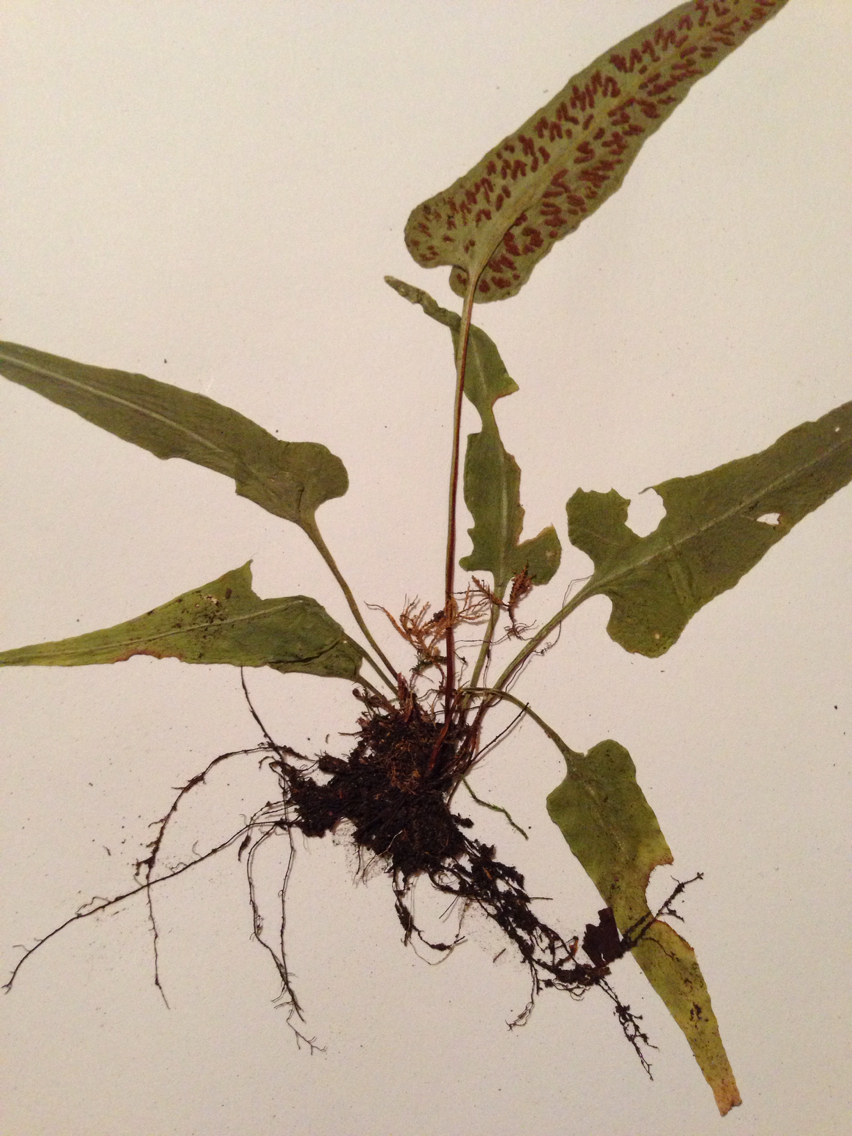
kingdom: Plantae
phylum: Tracheophyta
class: Polypodiopsida
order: Polypodiales
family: Aspleniaceae
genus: Asplenium
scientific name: Asplenium rhizophyllum
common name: Walking fern
